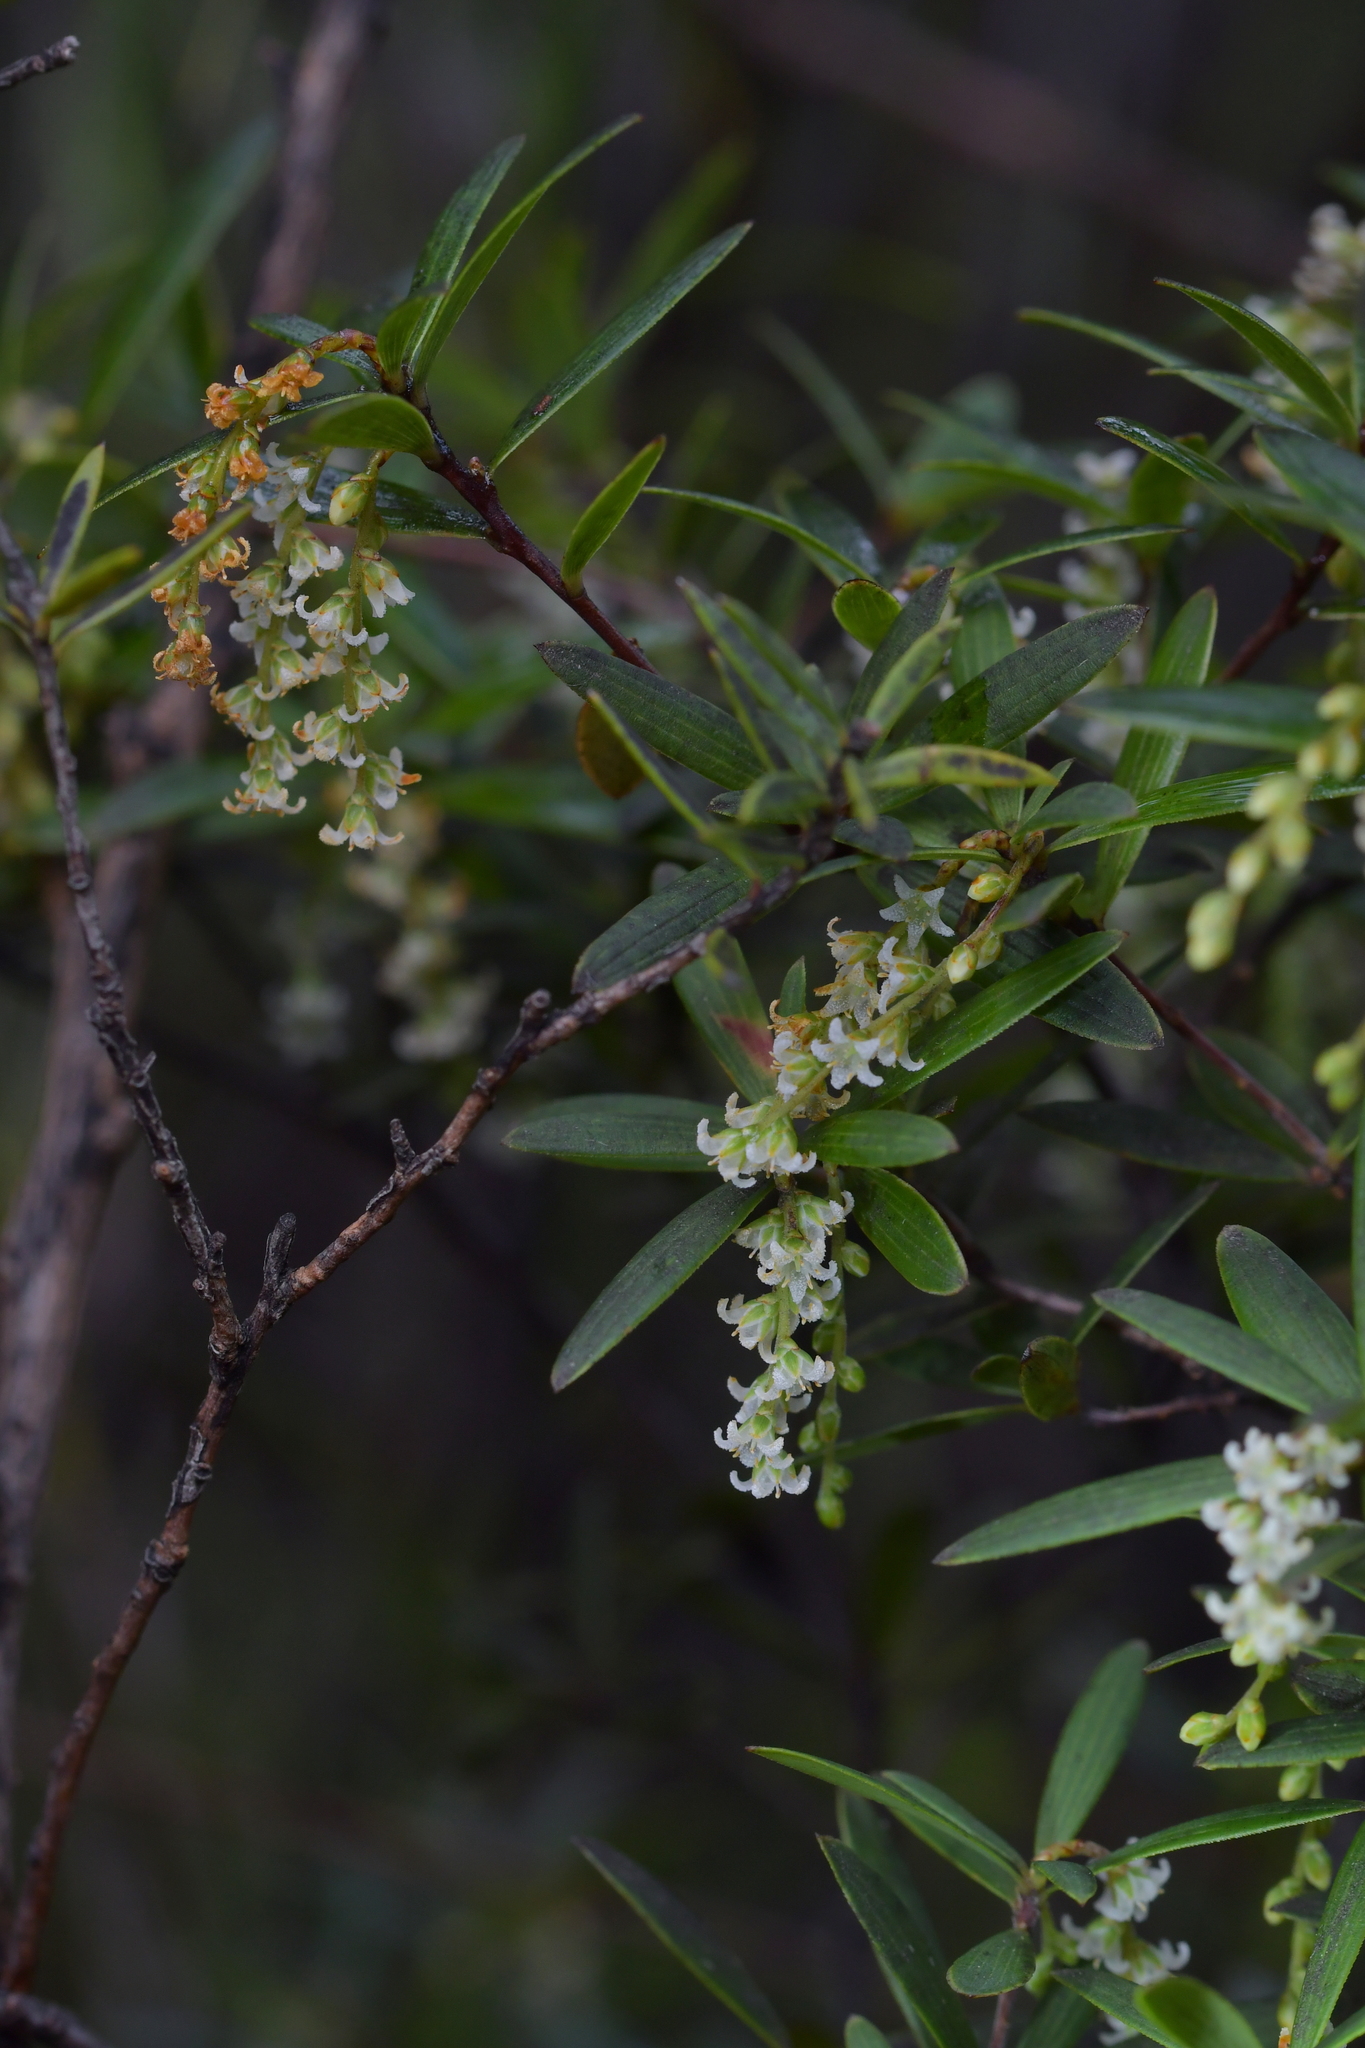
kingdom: Plantae
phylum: Tracheophyta
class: Magnoliopsida
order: Ericales
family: Ericaceae
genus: Leucopogon
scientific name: Leucopogon fasciculatus
